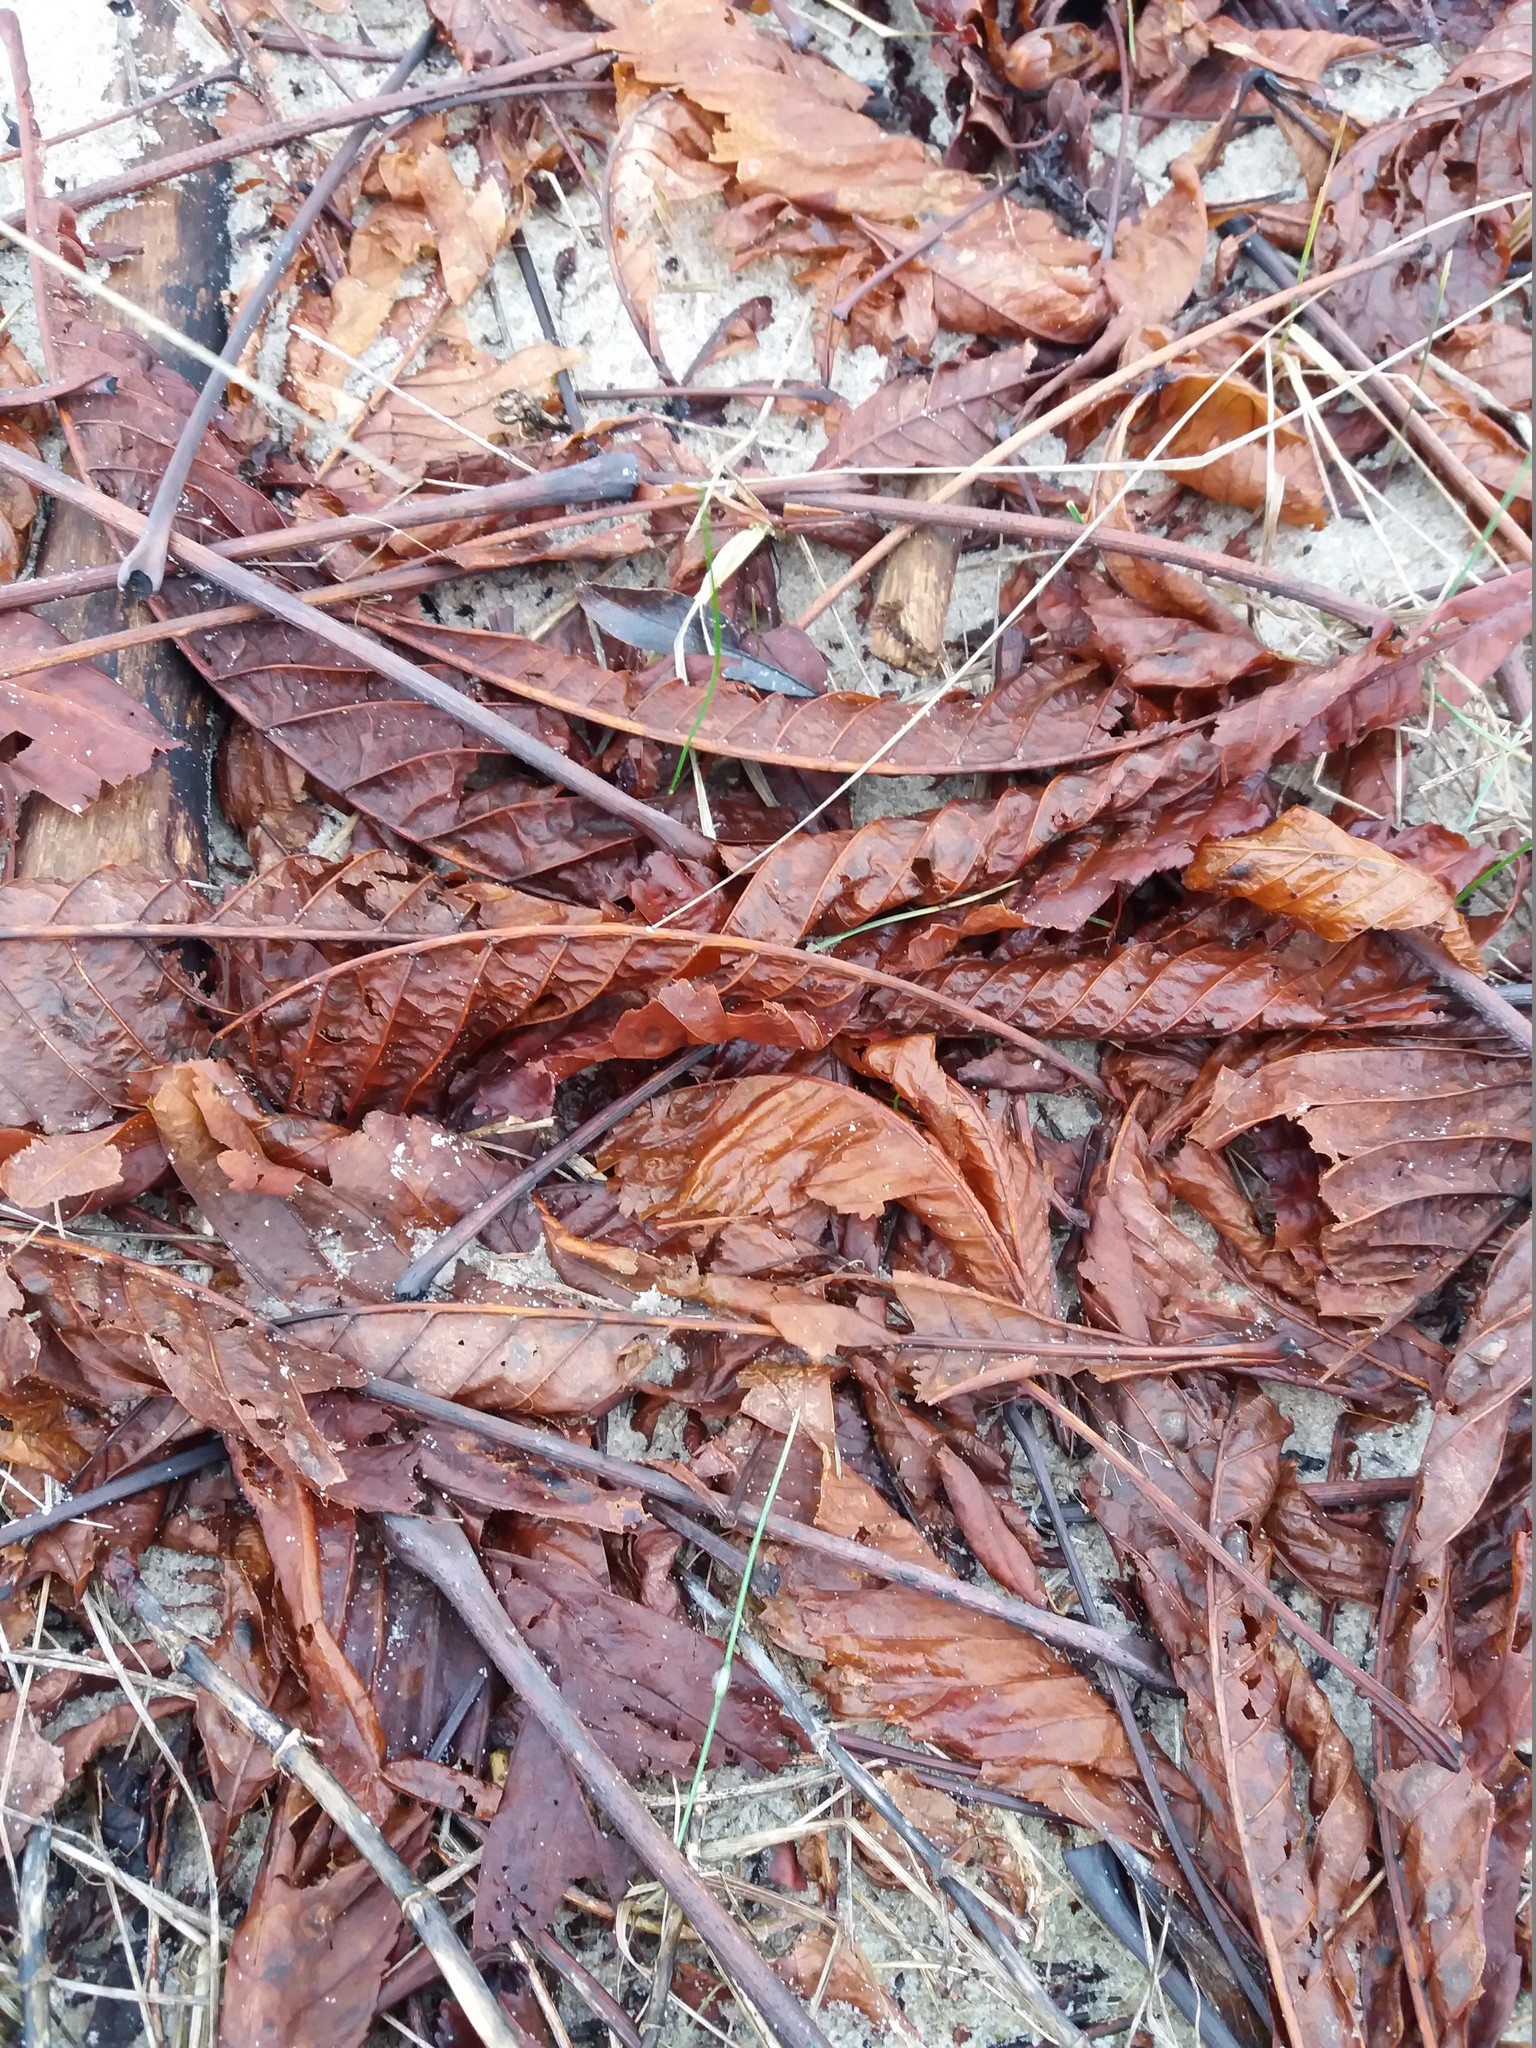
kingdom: Plantae
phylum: Tracheophyta
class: Magnoliopsida
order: Sapindales
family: Sapindaceae
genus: Aesculus
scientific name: Aesculus hippocastanum
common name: Horse-chestnut
